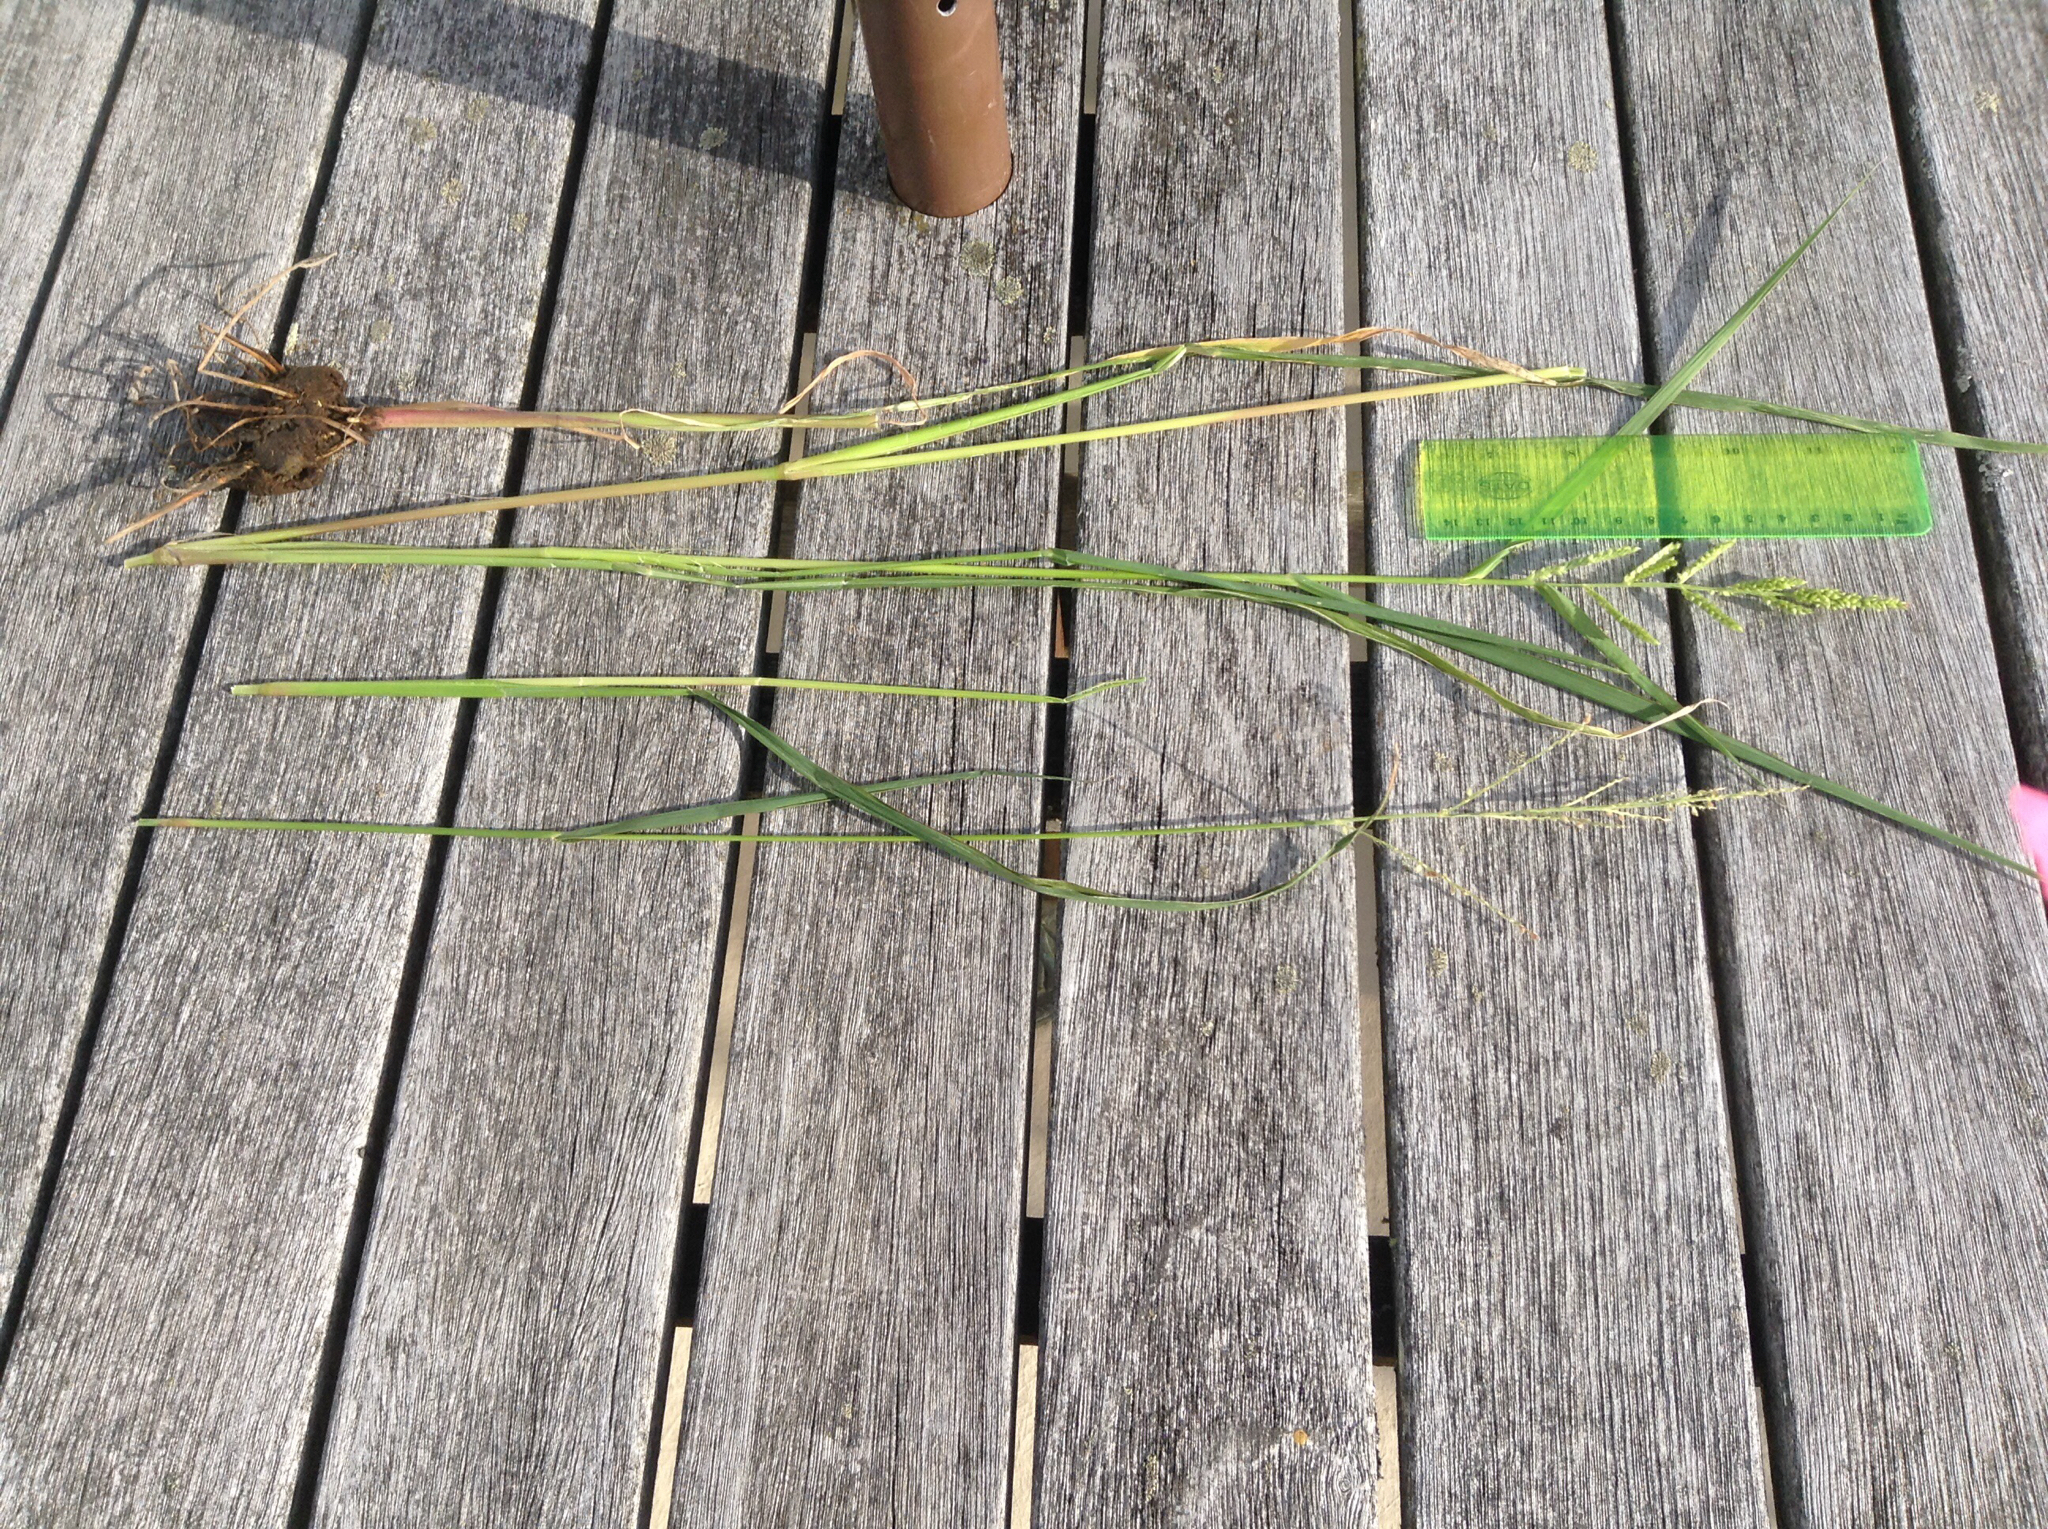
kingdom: Plantae
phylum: Tracheophyta
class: Liliopsida
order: Poales
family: Poaceae
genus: Echinochloa
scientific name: Echinochloa crus-galli
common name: Cockspur
